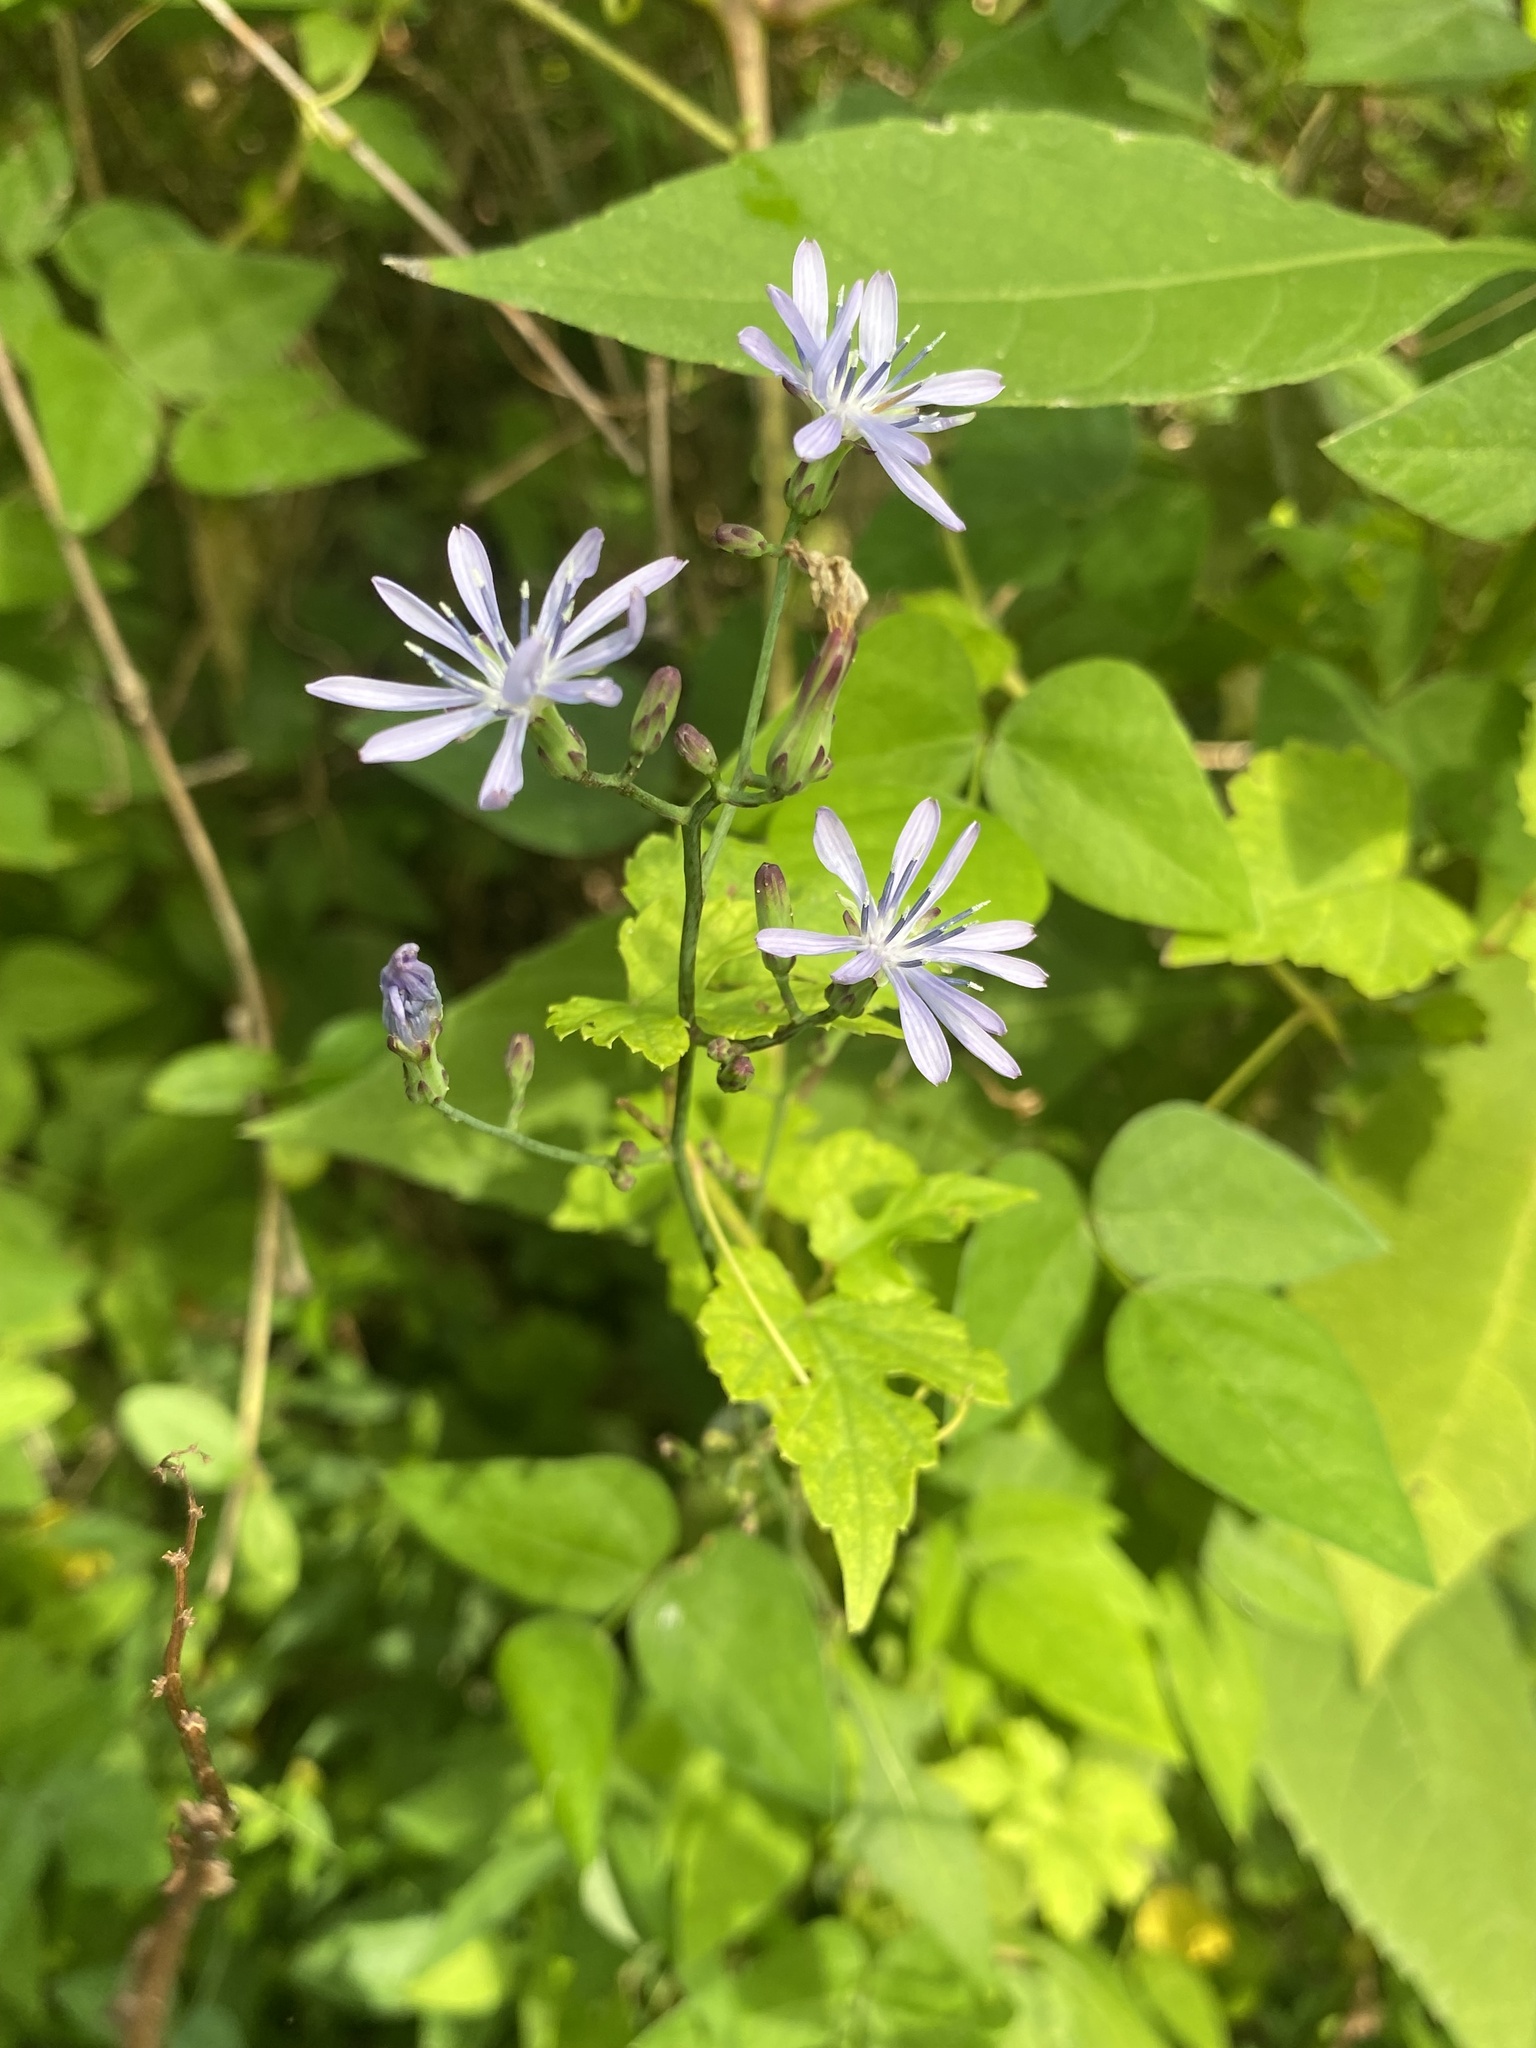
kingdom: Plantae
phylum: Tracheophyta
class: Magnoliopsida
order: Asterales
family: Asteraceae
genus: Lactuca
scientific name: Lactuca floridana
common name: Woodland lettuce
